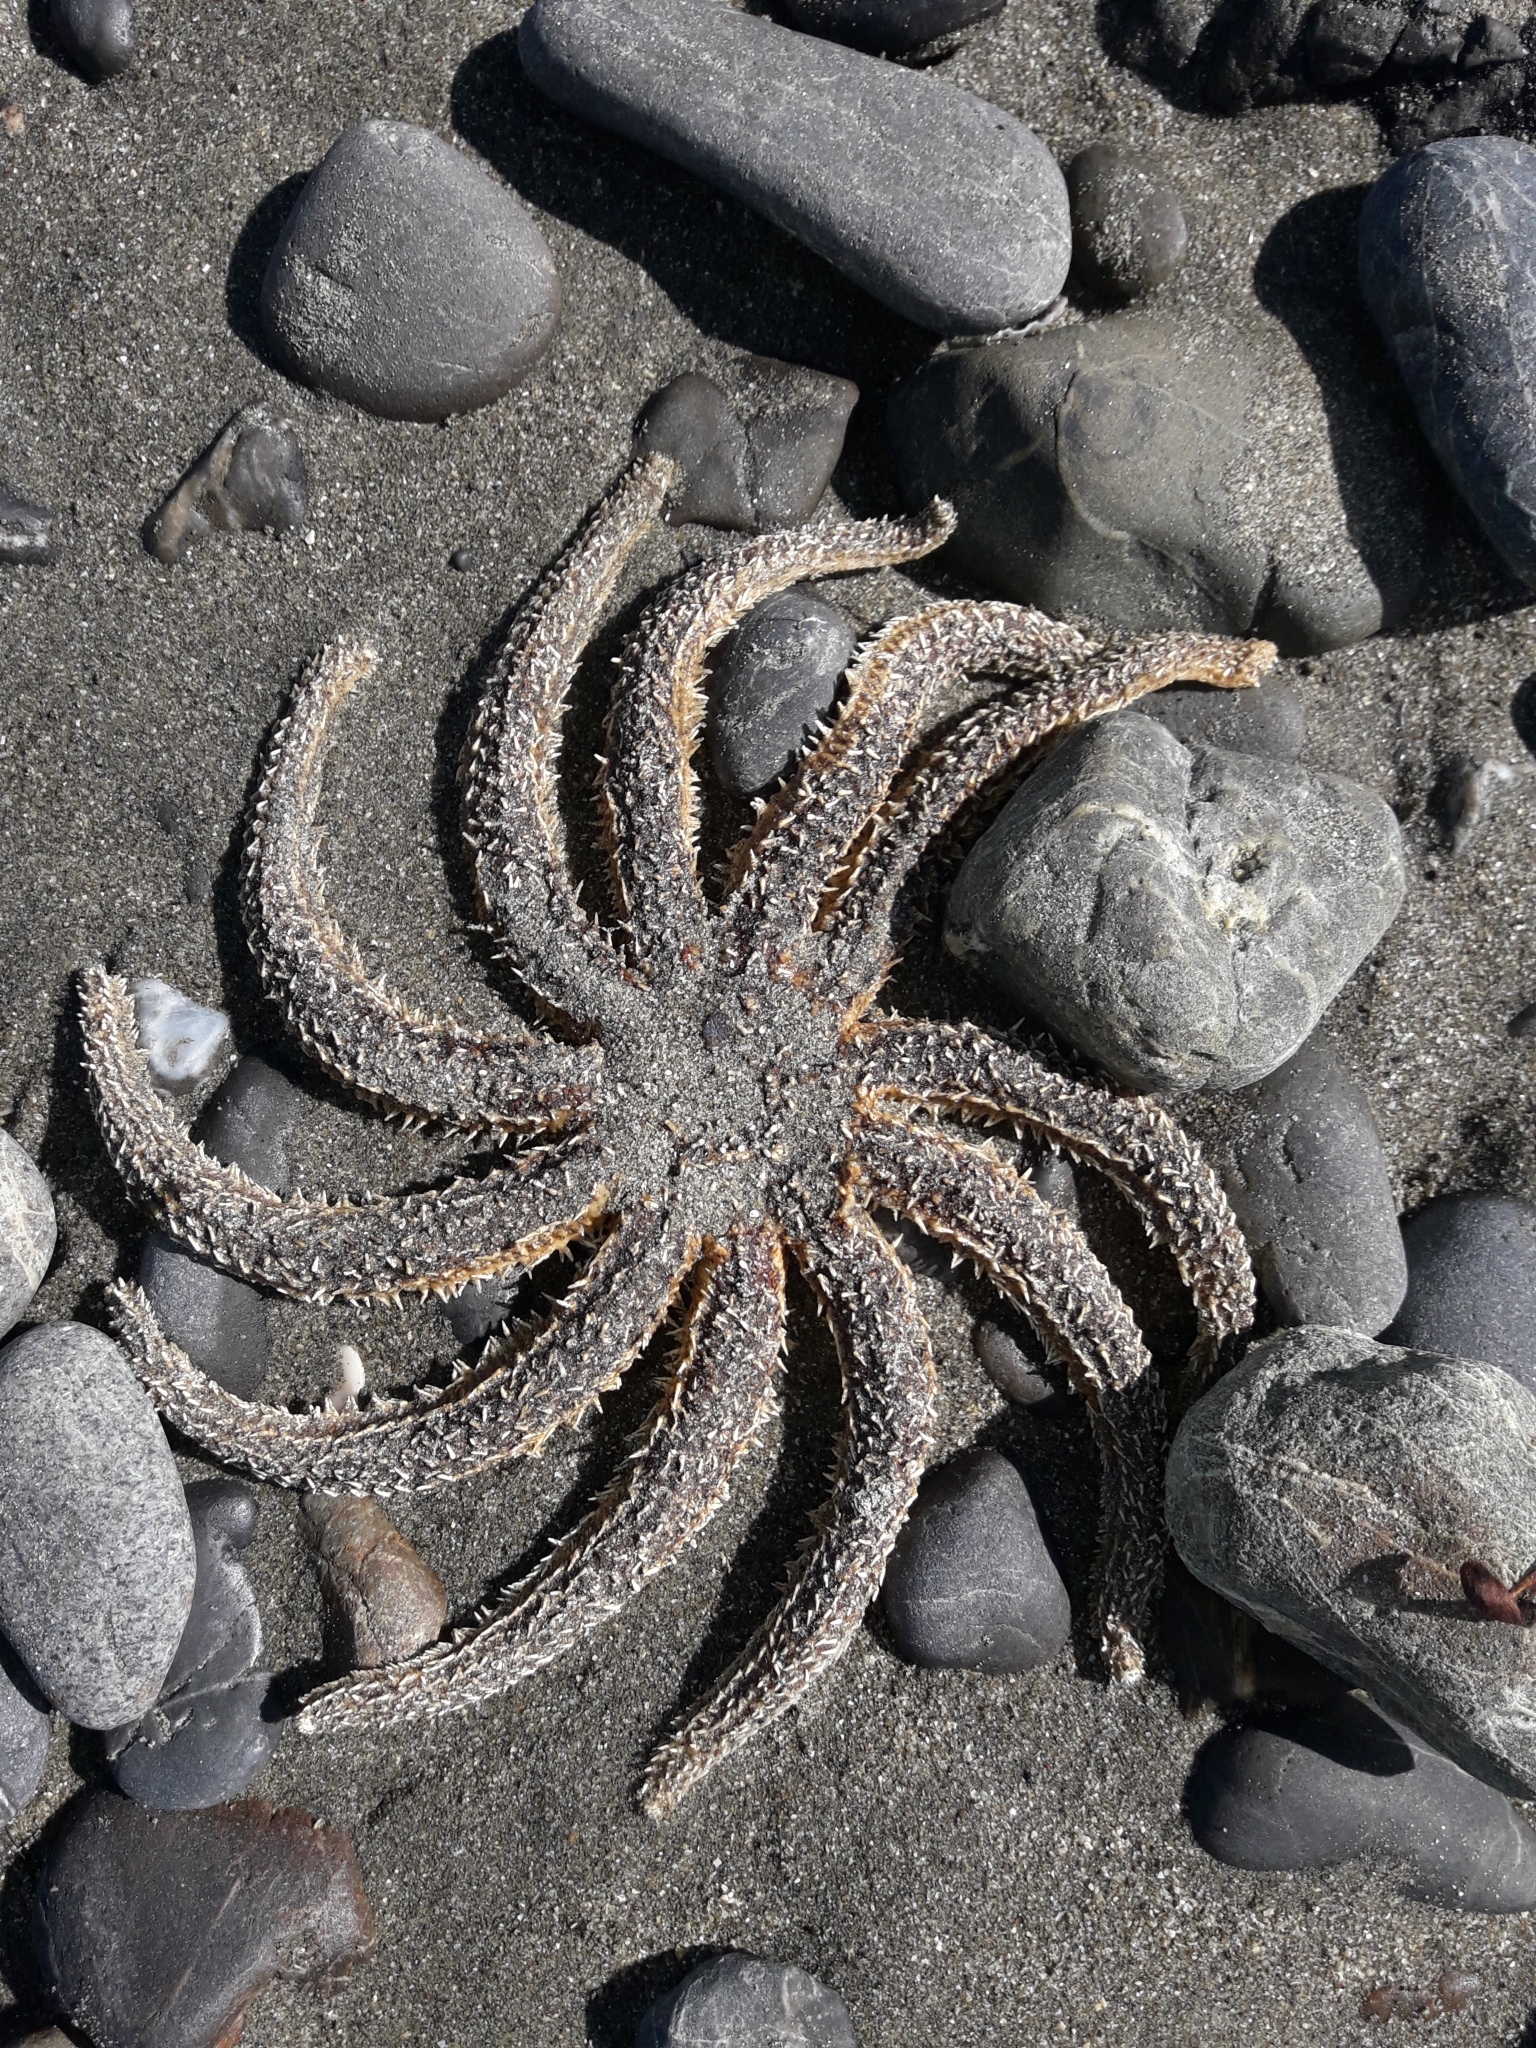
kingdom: Animalia
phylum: Echinodermata
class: Asteroidea
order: Forcipulatida
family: Asteriidae
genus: Coscinasterias
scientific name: Coscinasterias muricata
